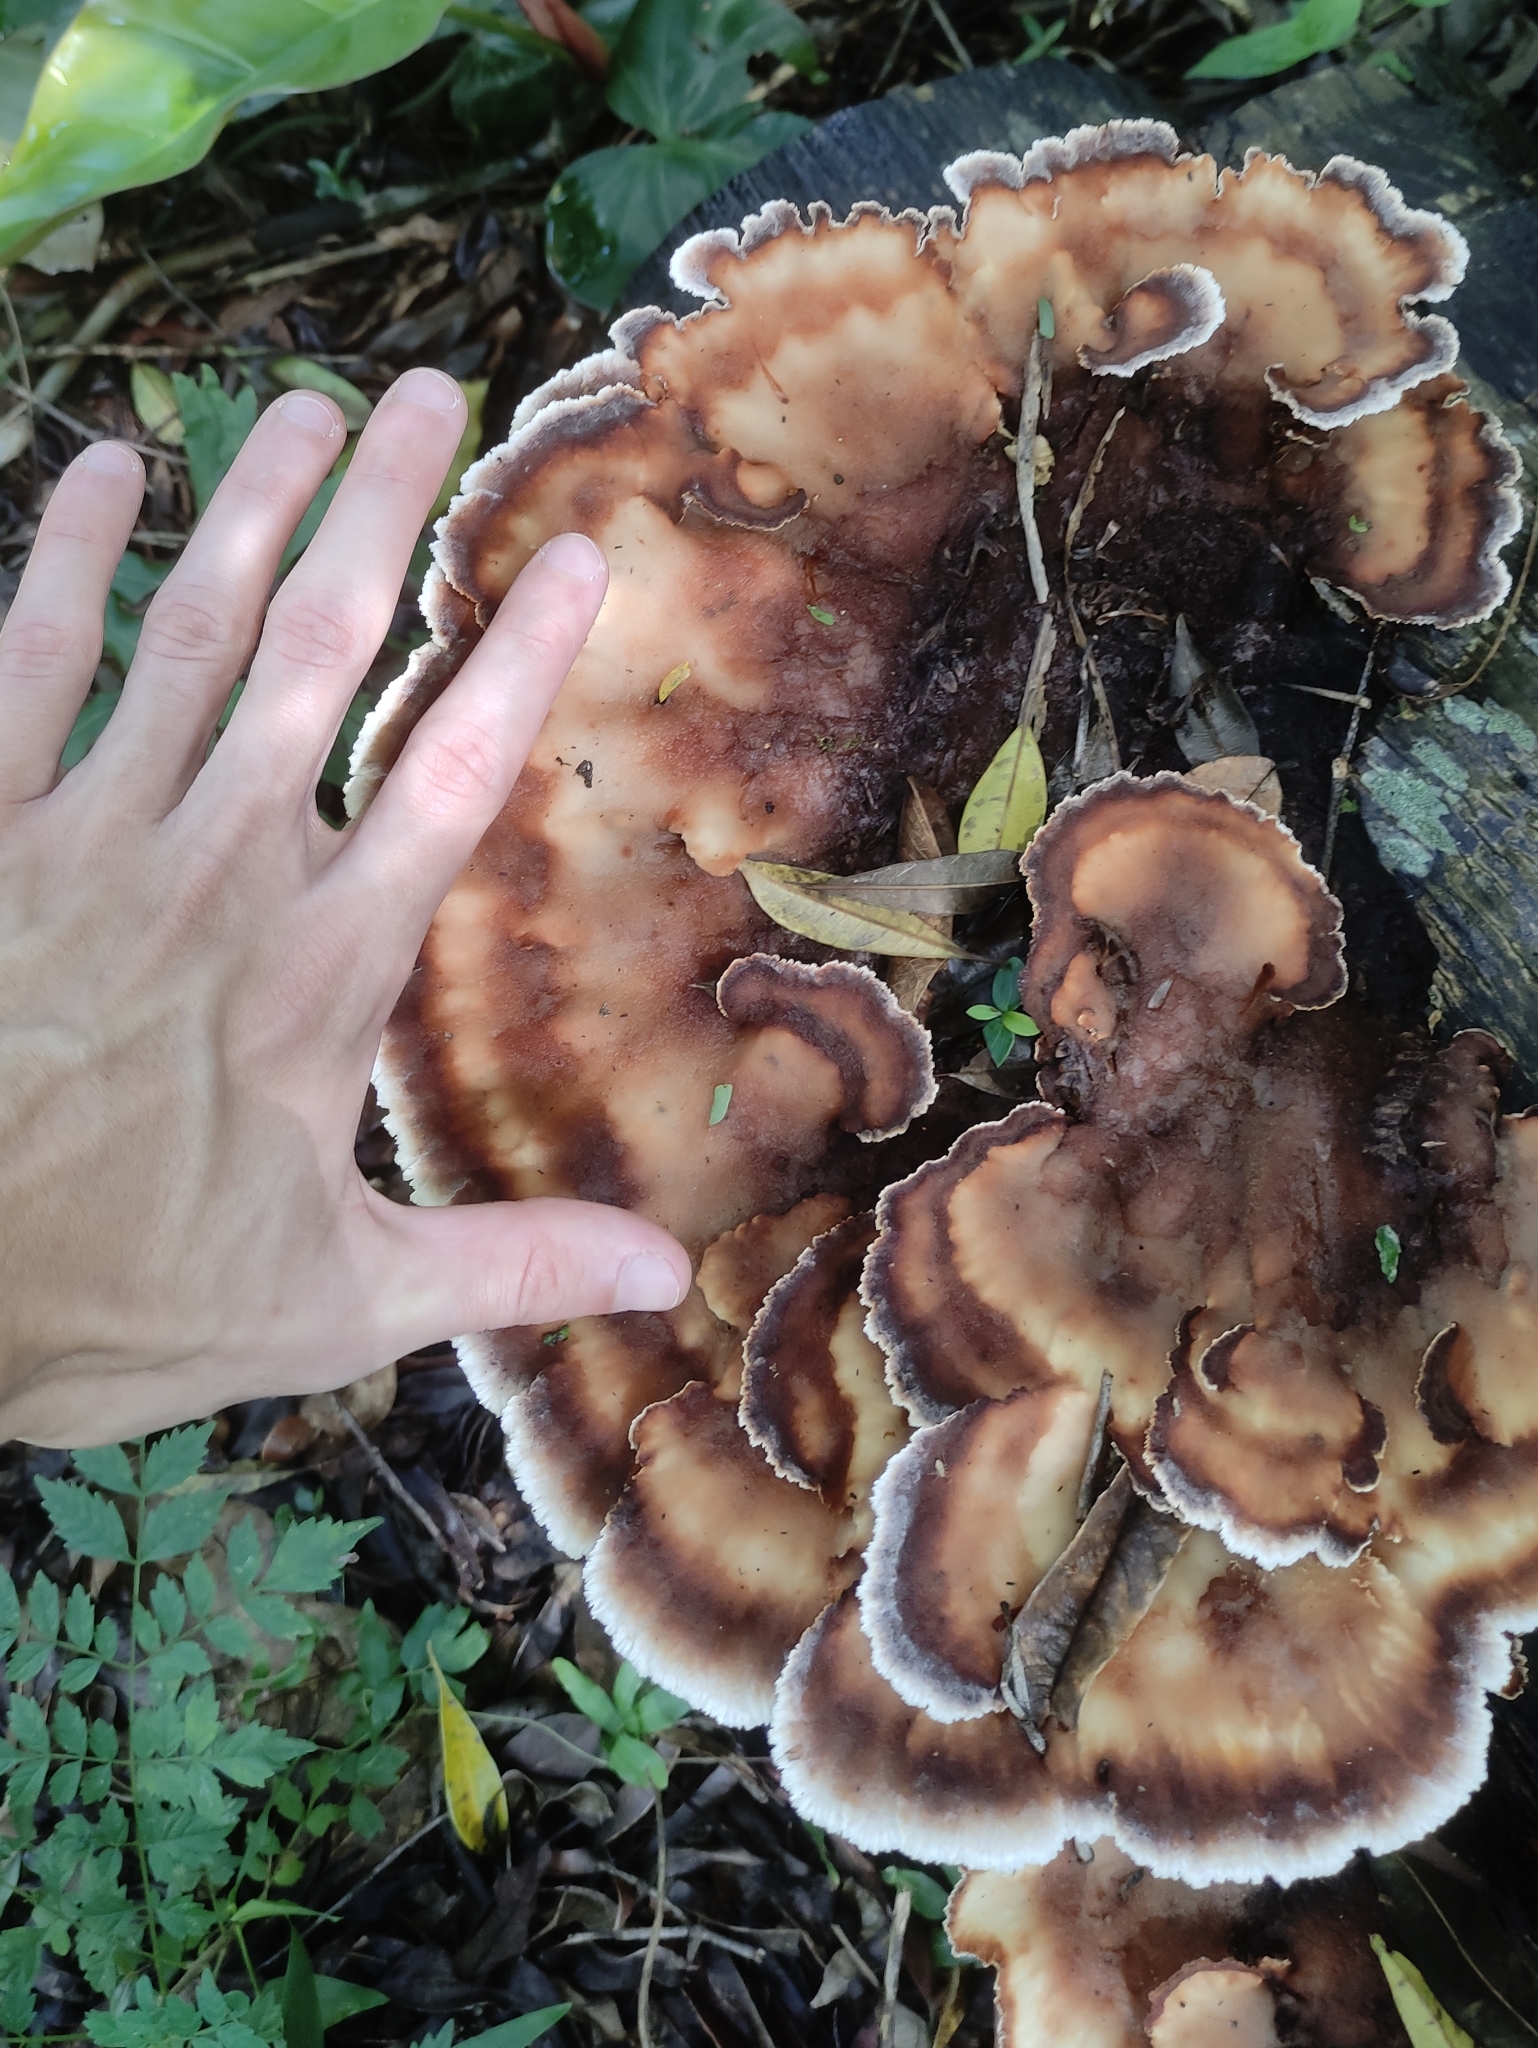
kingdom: Fungi
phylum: Basidiomycota
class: Agaricomycetes
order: Polyporales
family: Panaceae
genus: Cymatoderma
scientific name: Cymatoderma dendriticum
